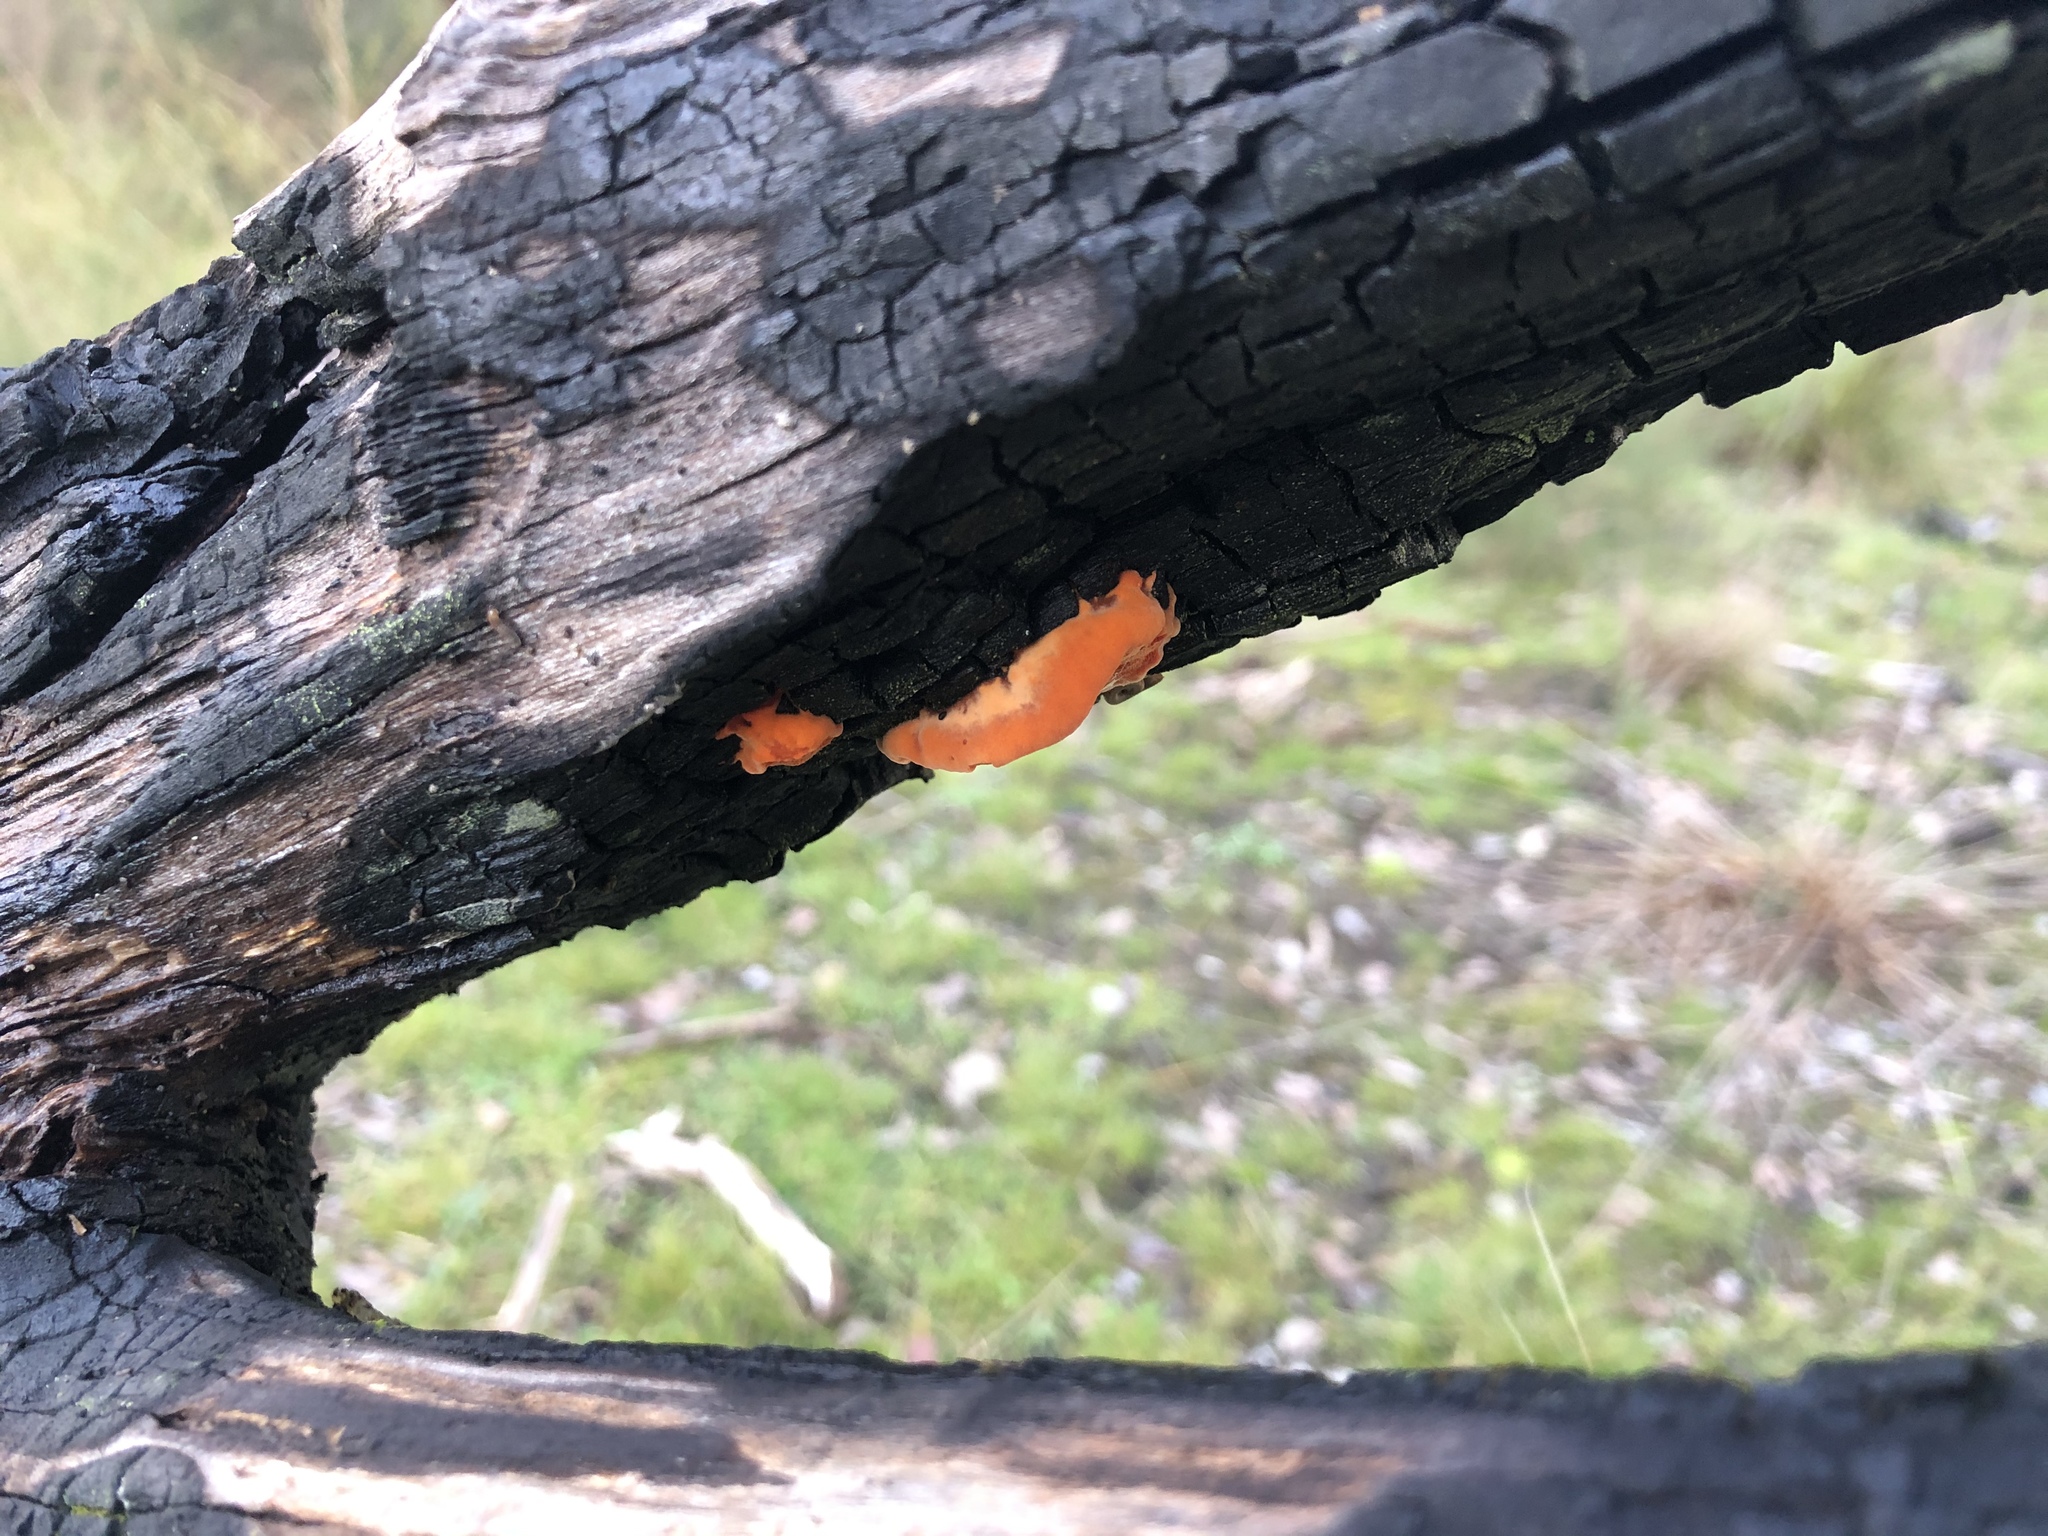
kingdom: Fungi
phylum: Basidiomycota
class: Agaricomycetes
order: Polyporales
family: Polyporaceae
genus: Trametes
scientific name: Trametes coccinea
